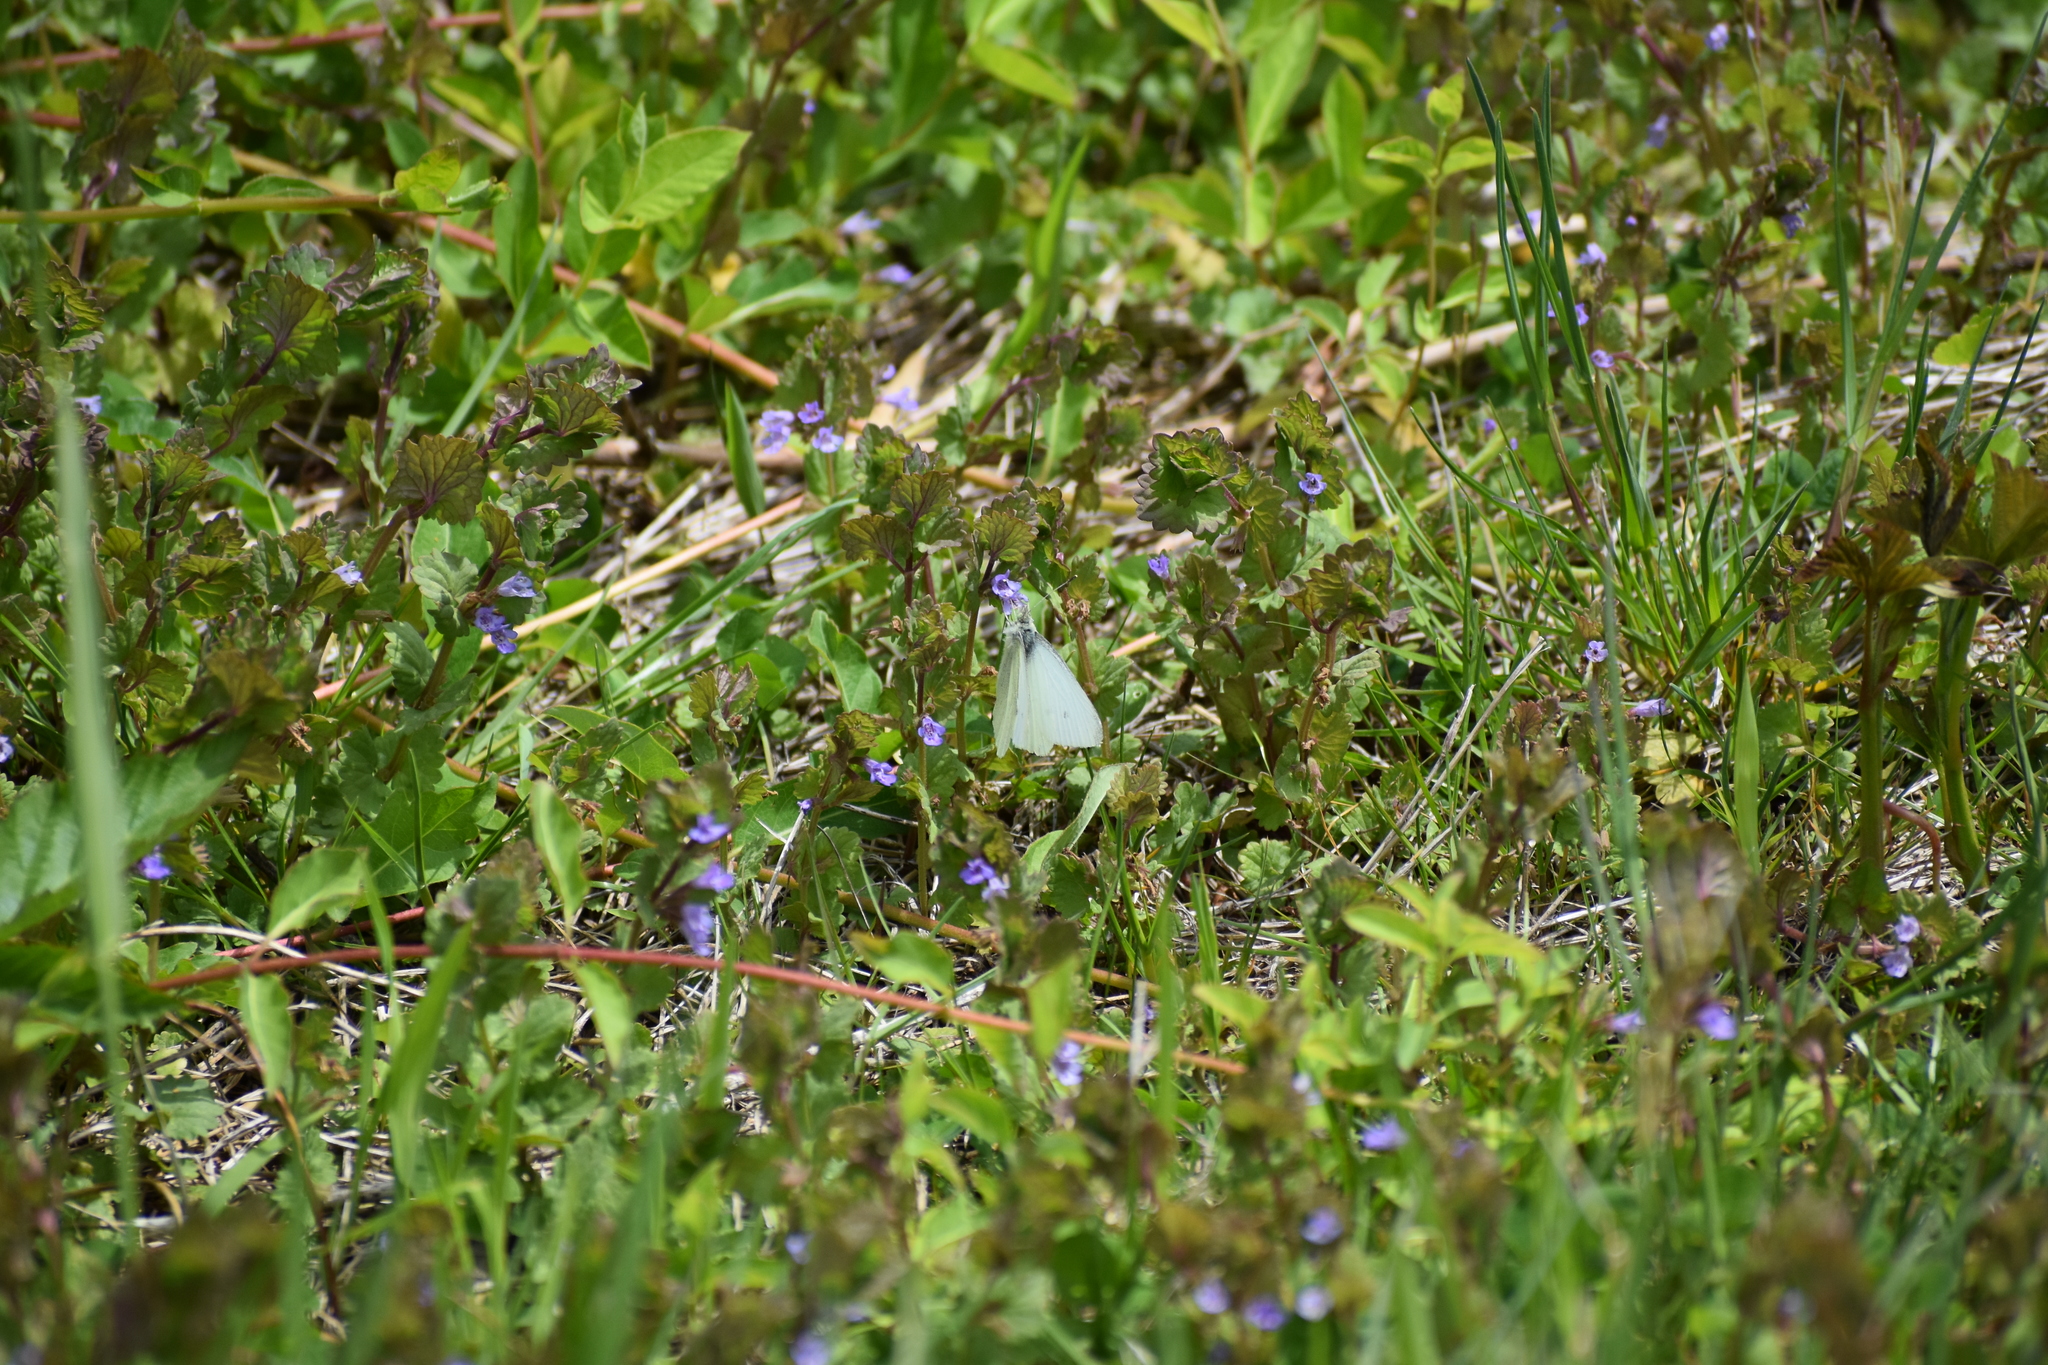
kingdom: Animalia
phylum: Arthropoda
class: Insecta
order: Lepidoptera
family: Pieridae
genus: Pieris
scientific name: Pieris rapae
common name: Small white
